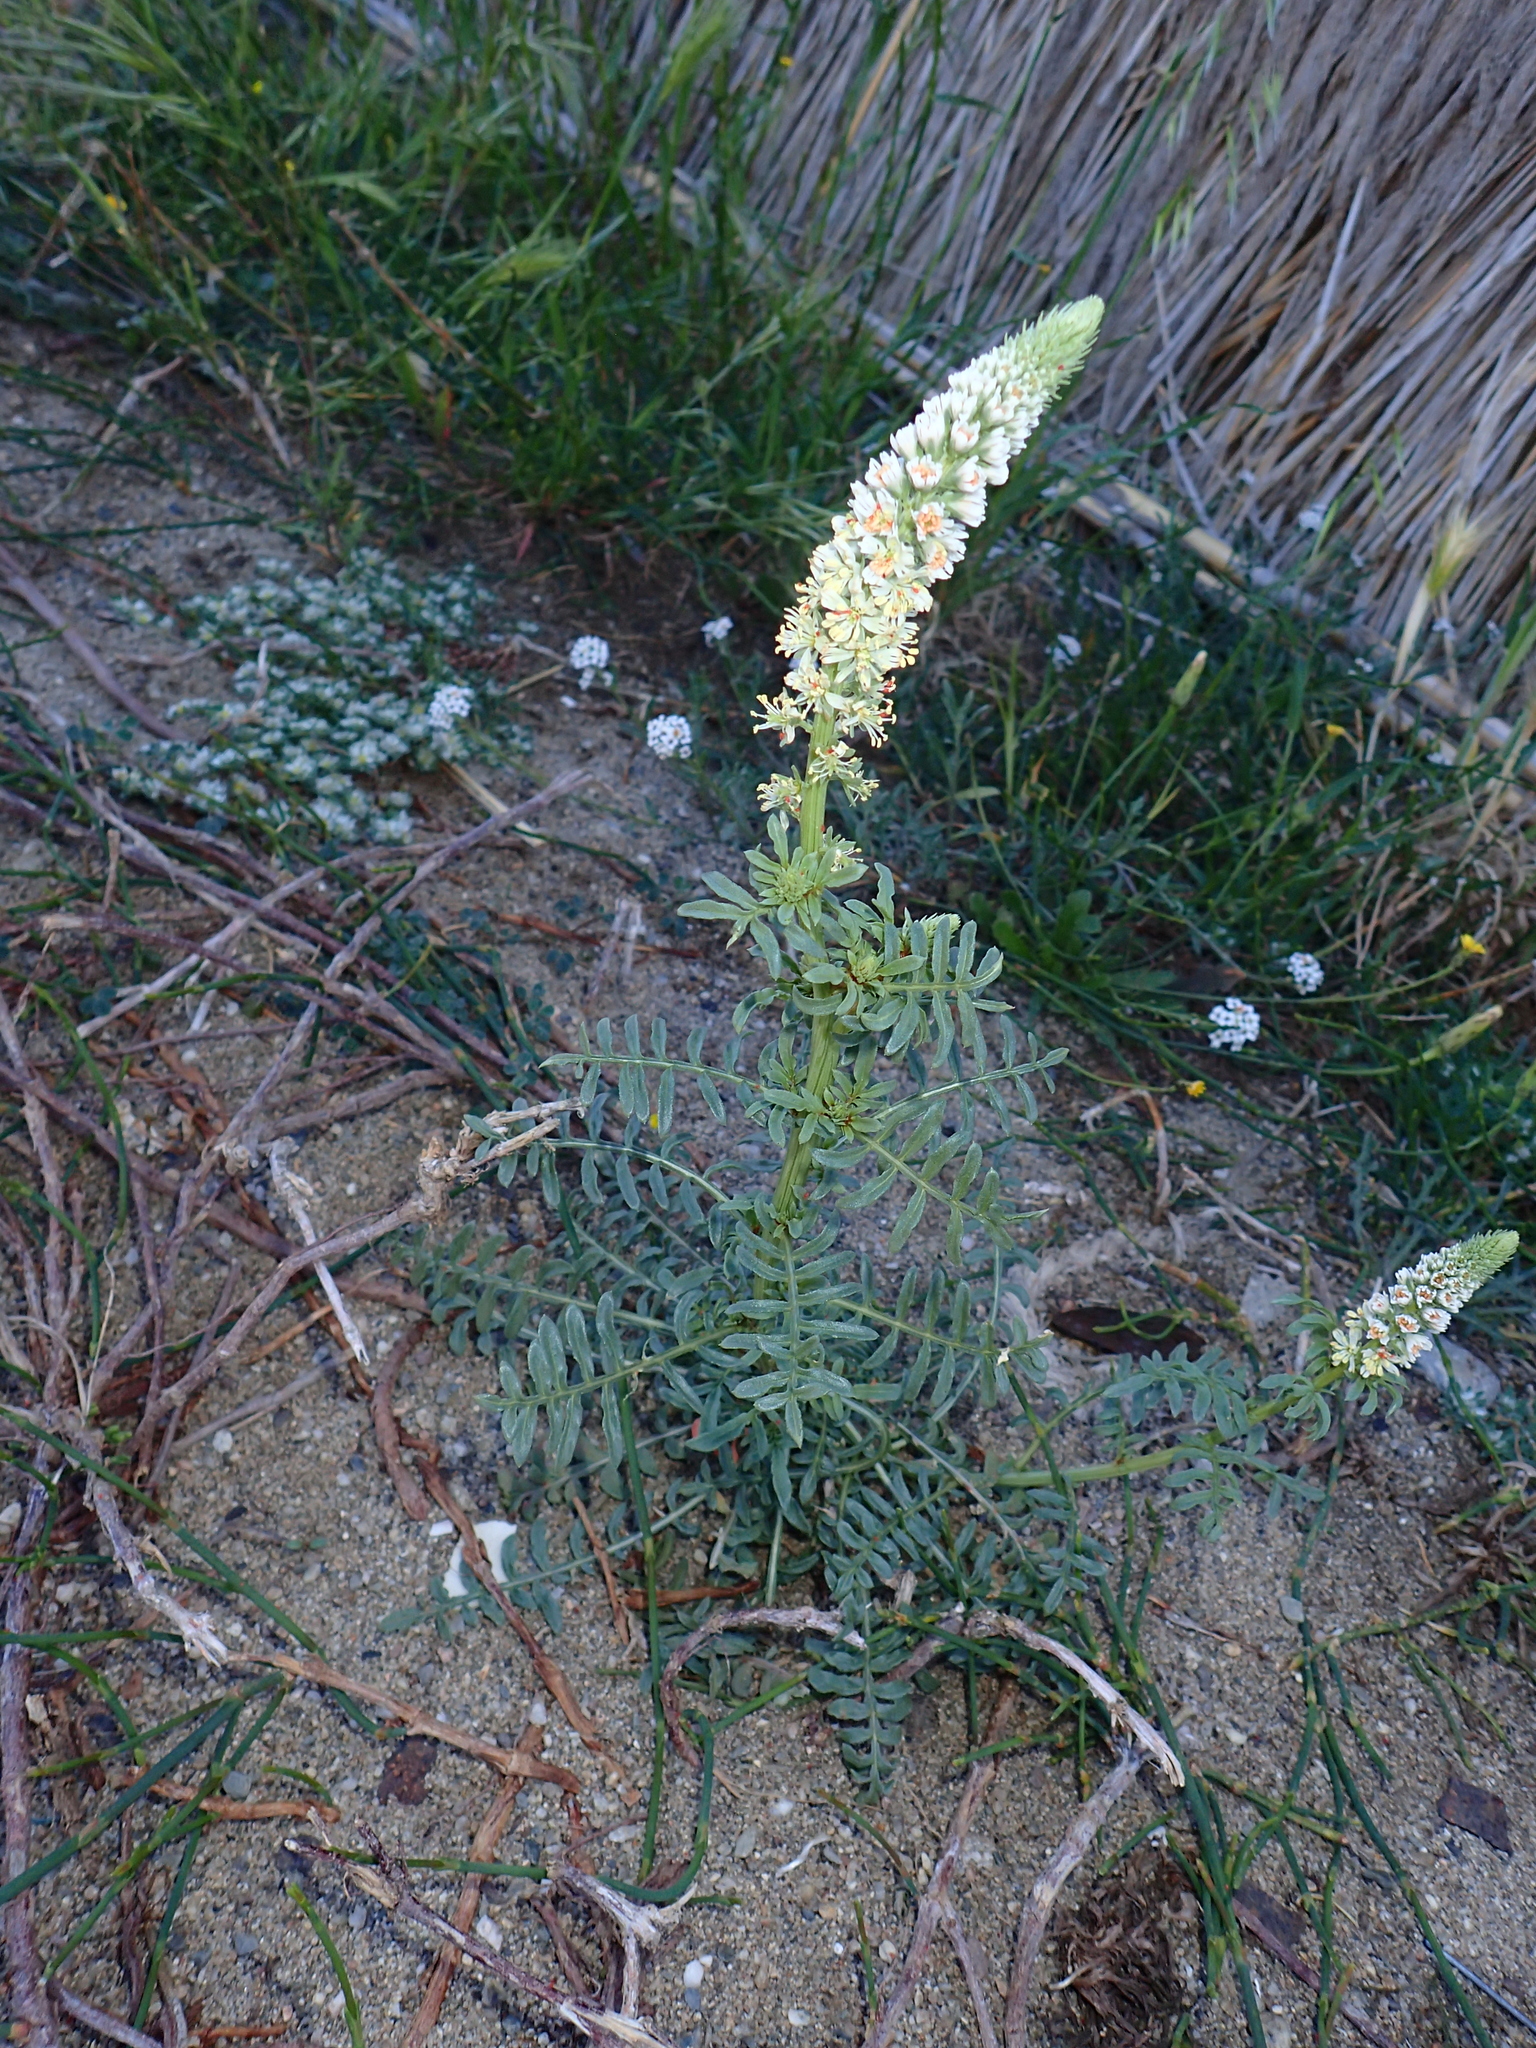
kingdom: Plantae
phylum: Tracheophyta
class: Magnoliopsida
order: Brassicales
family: Resedaceae
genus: Reseda
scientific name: Reseda alba
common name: White mignonette
